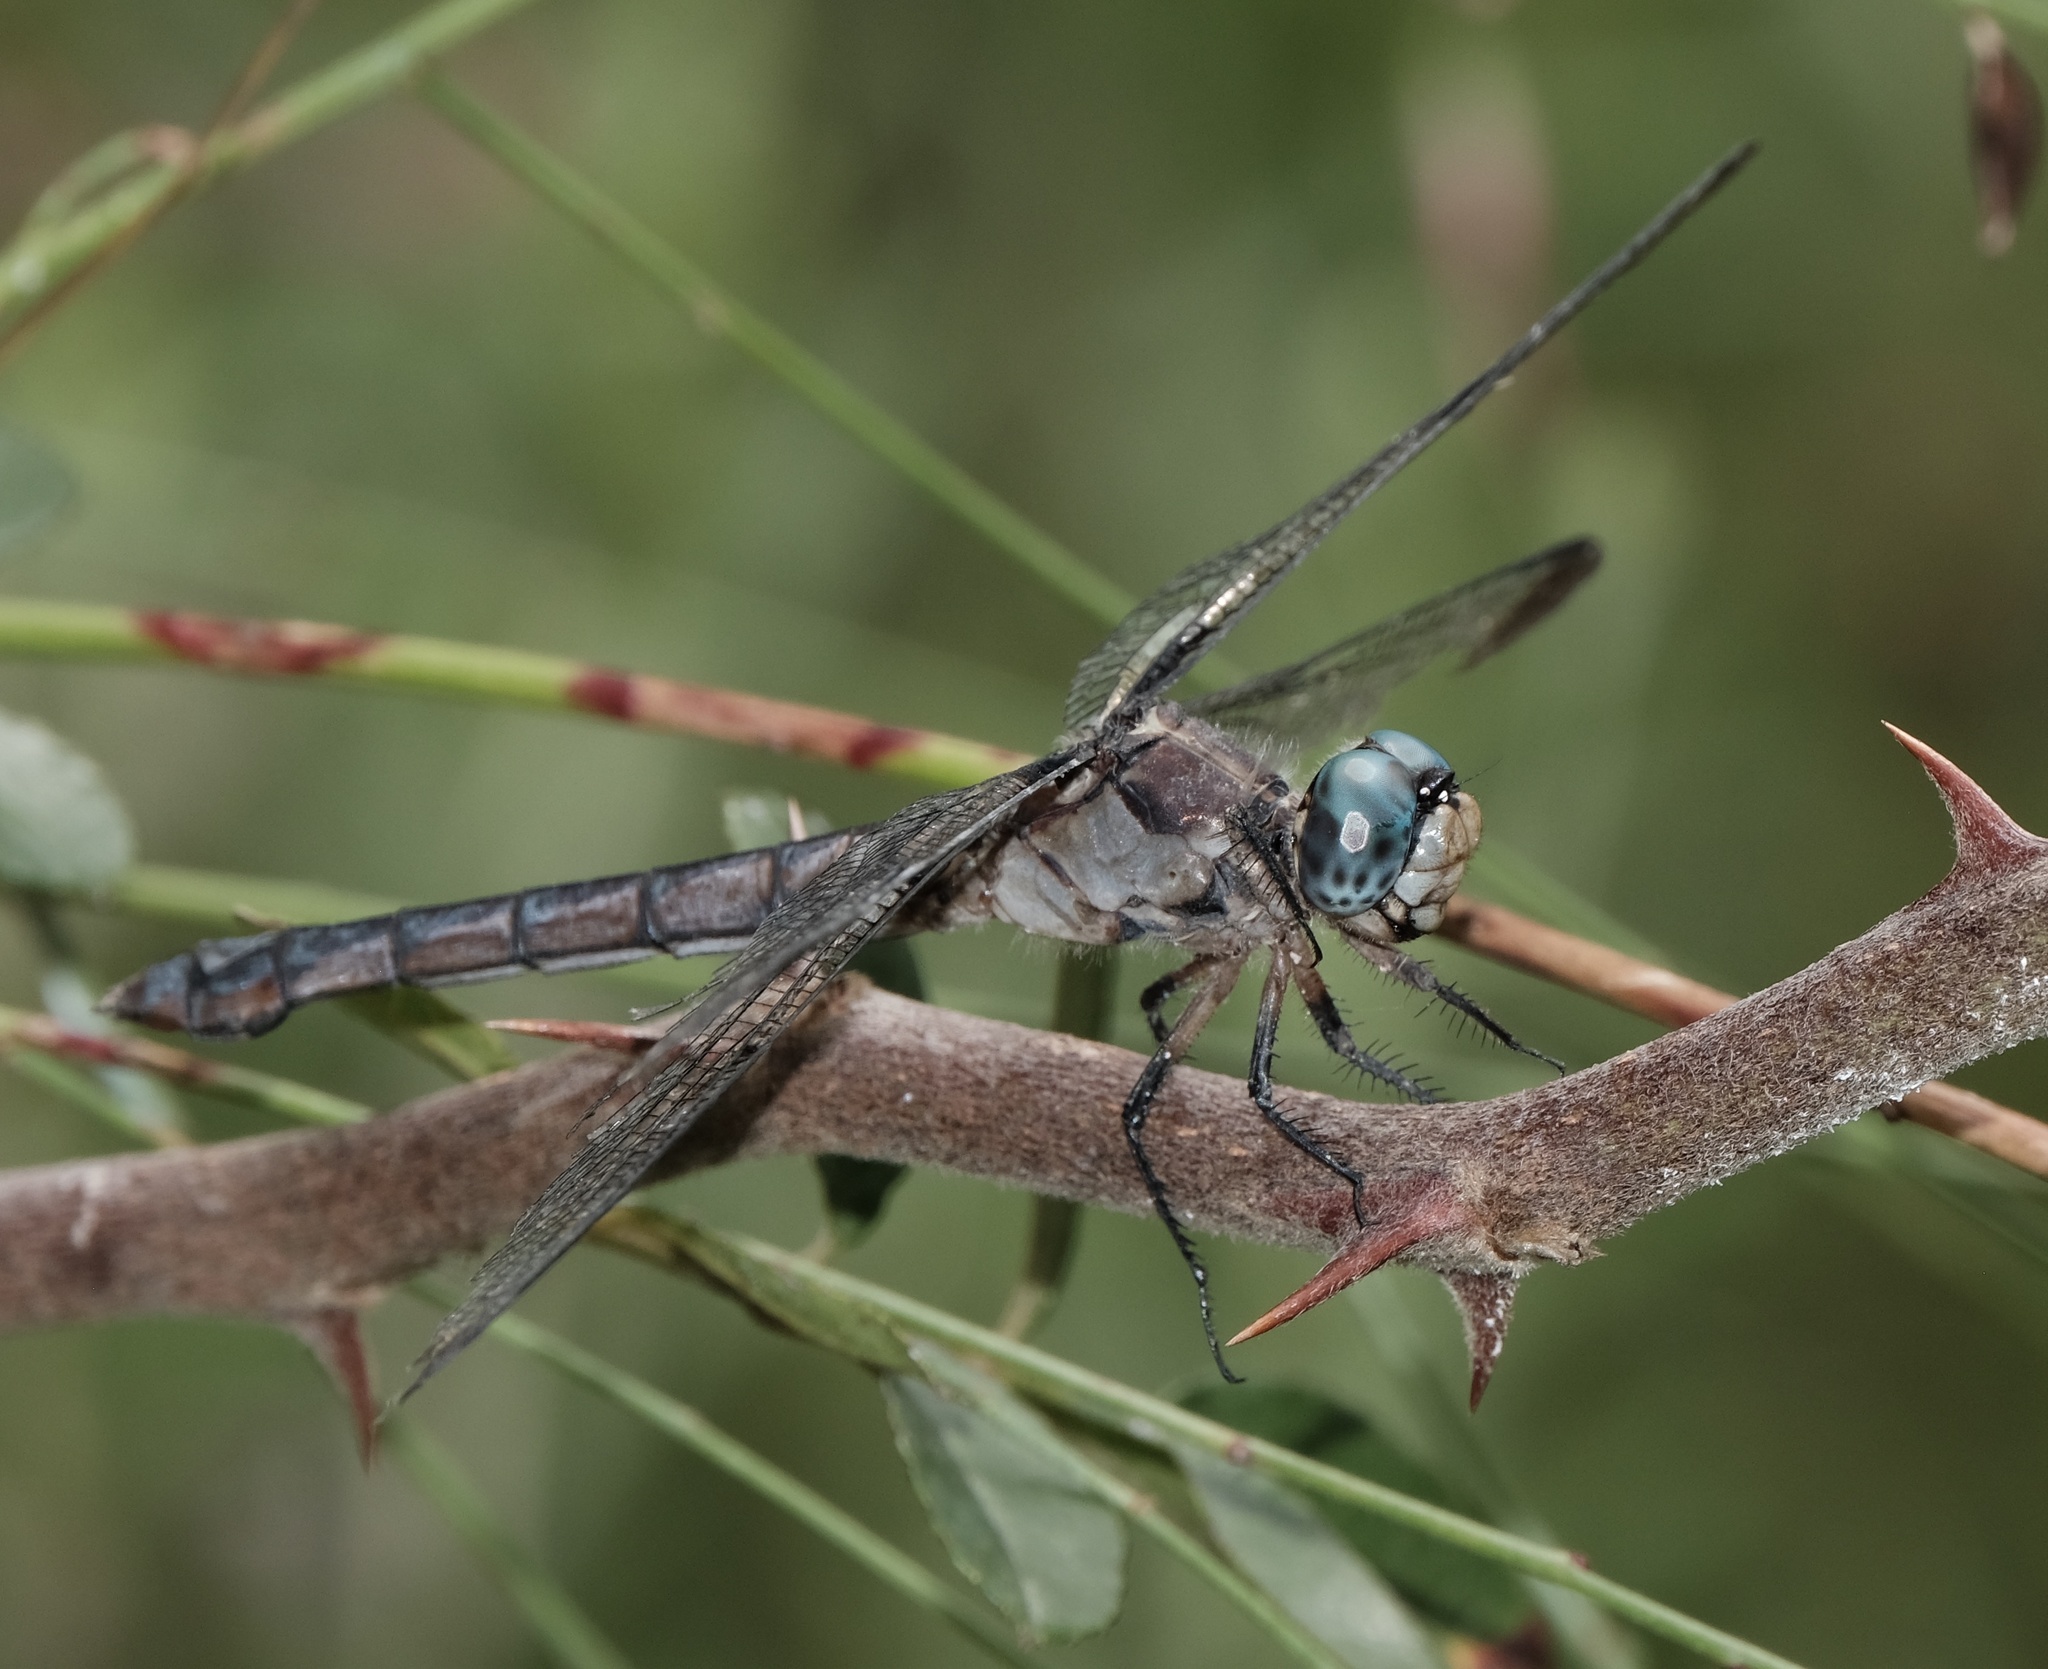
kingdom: Animalia
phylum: Arthropoda
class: Insecta
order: Odonata
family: Libellulidae
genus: Libellula
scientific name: Libellula vibrans
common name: Great blue skimmer
